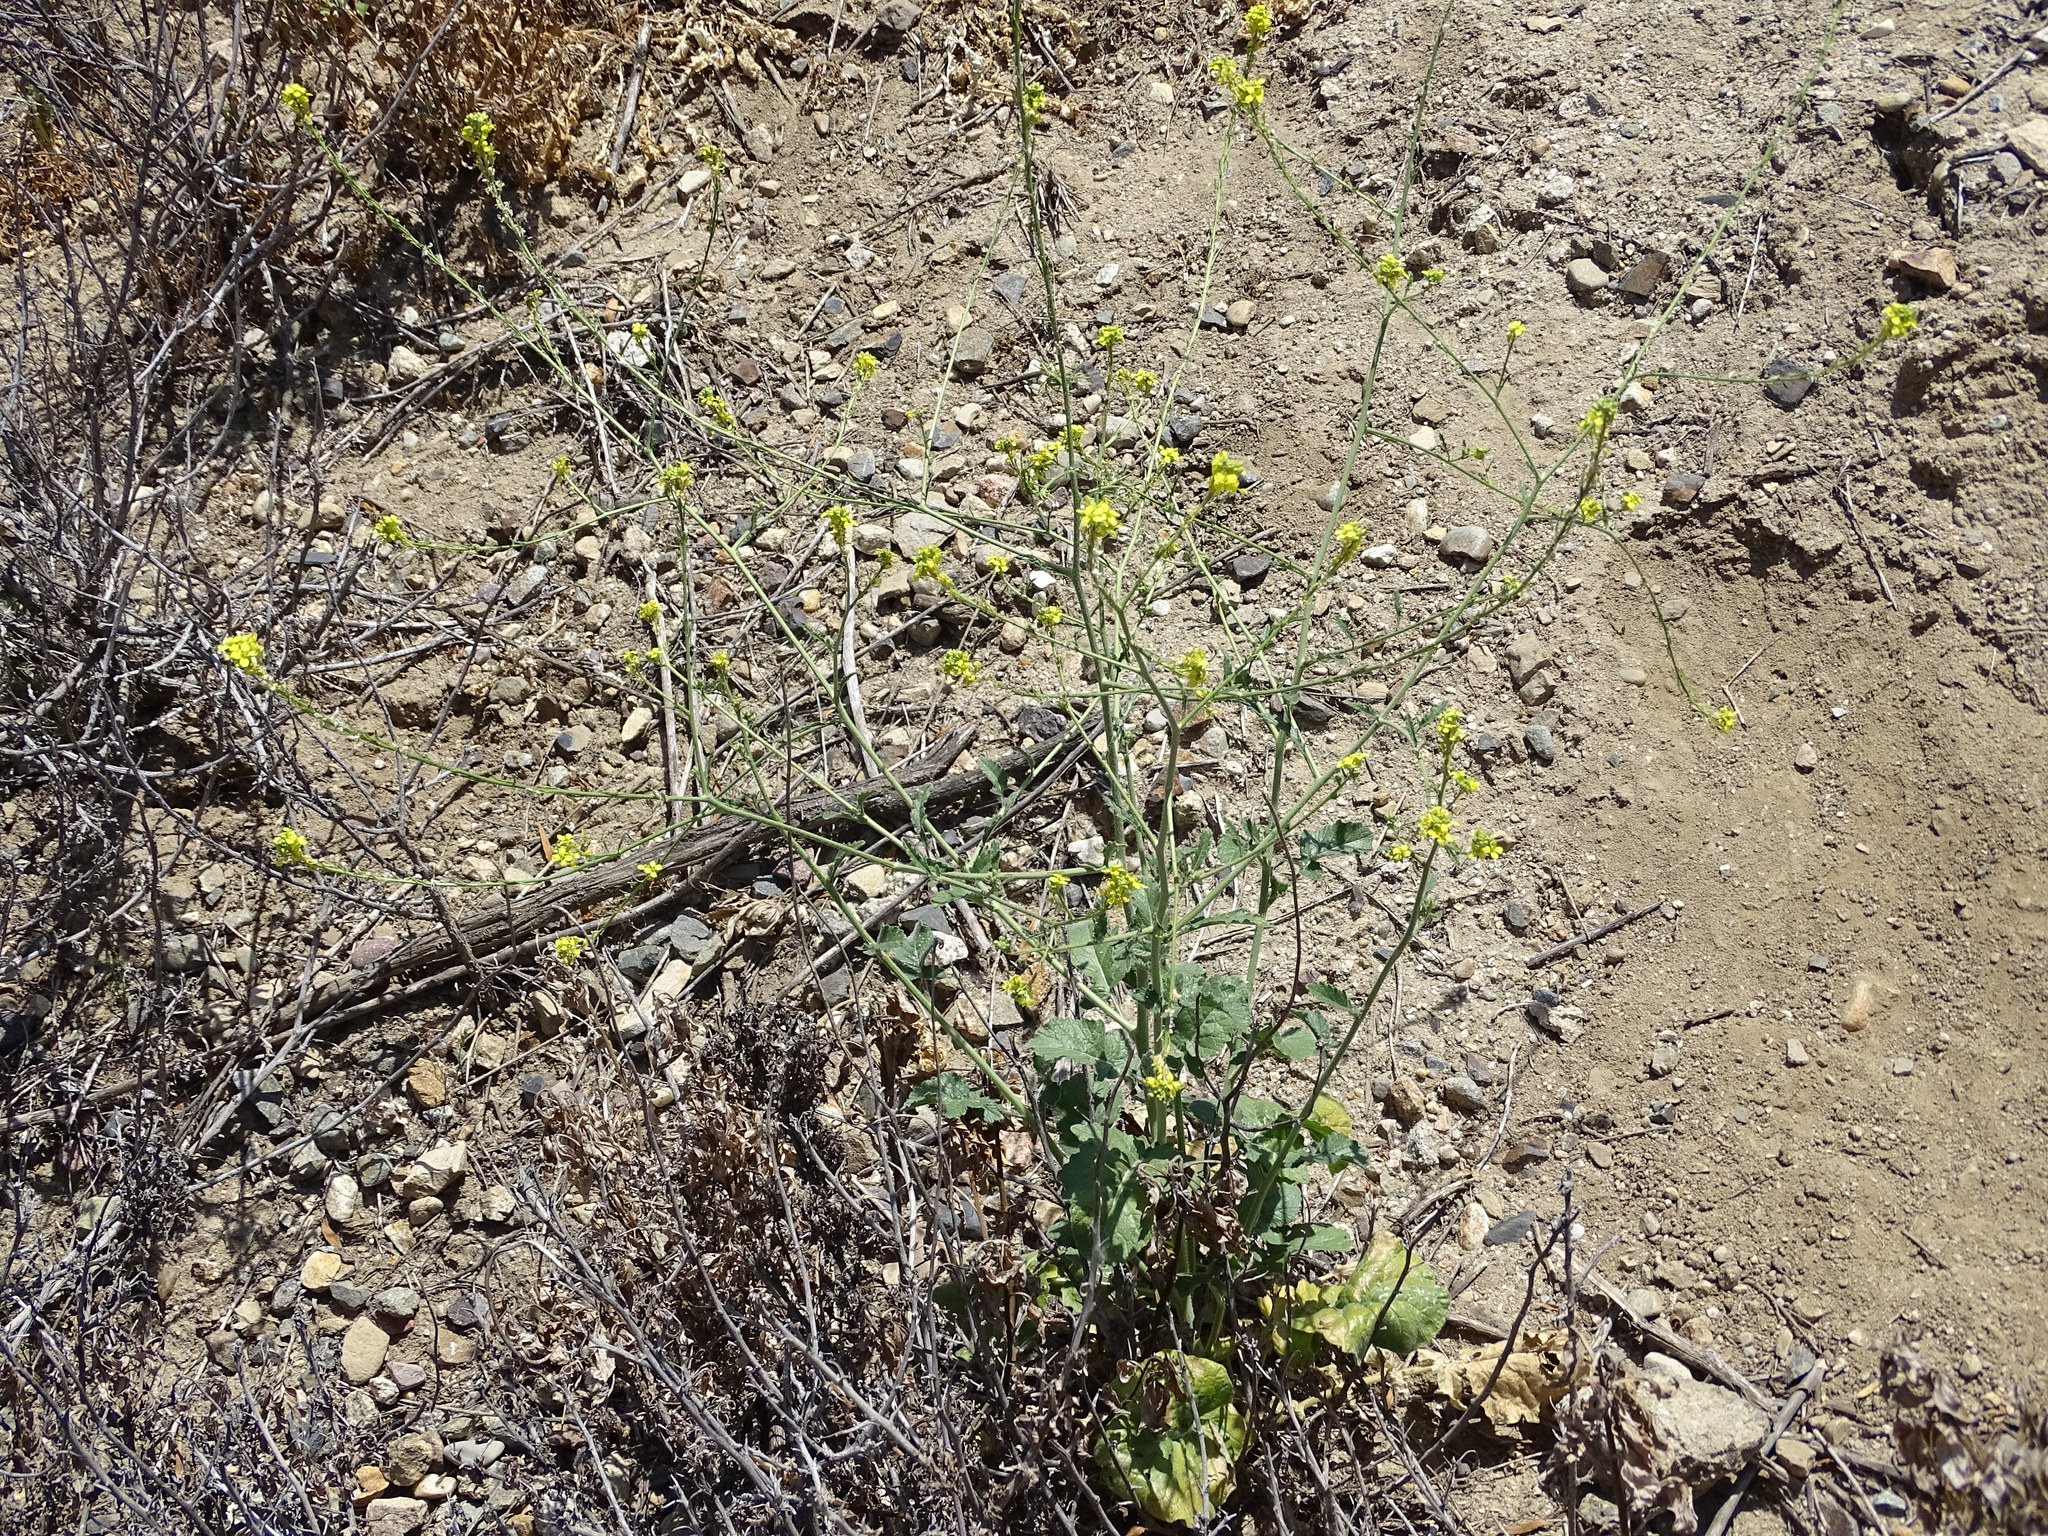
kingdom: Plantae
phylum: Tracheophyta
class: Magnoliopsida
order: Brassicales
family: Brassicaceae
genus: Hirschfeldia
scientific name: Hirschfeldia incana
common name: Hoary mustard
